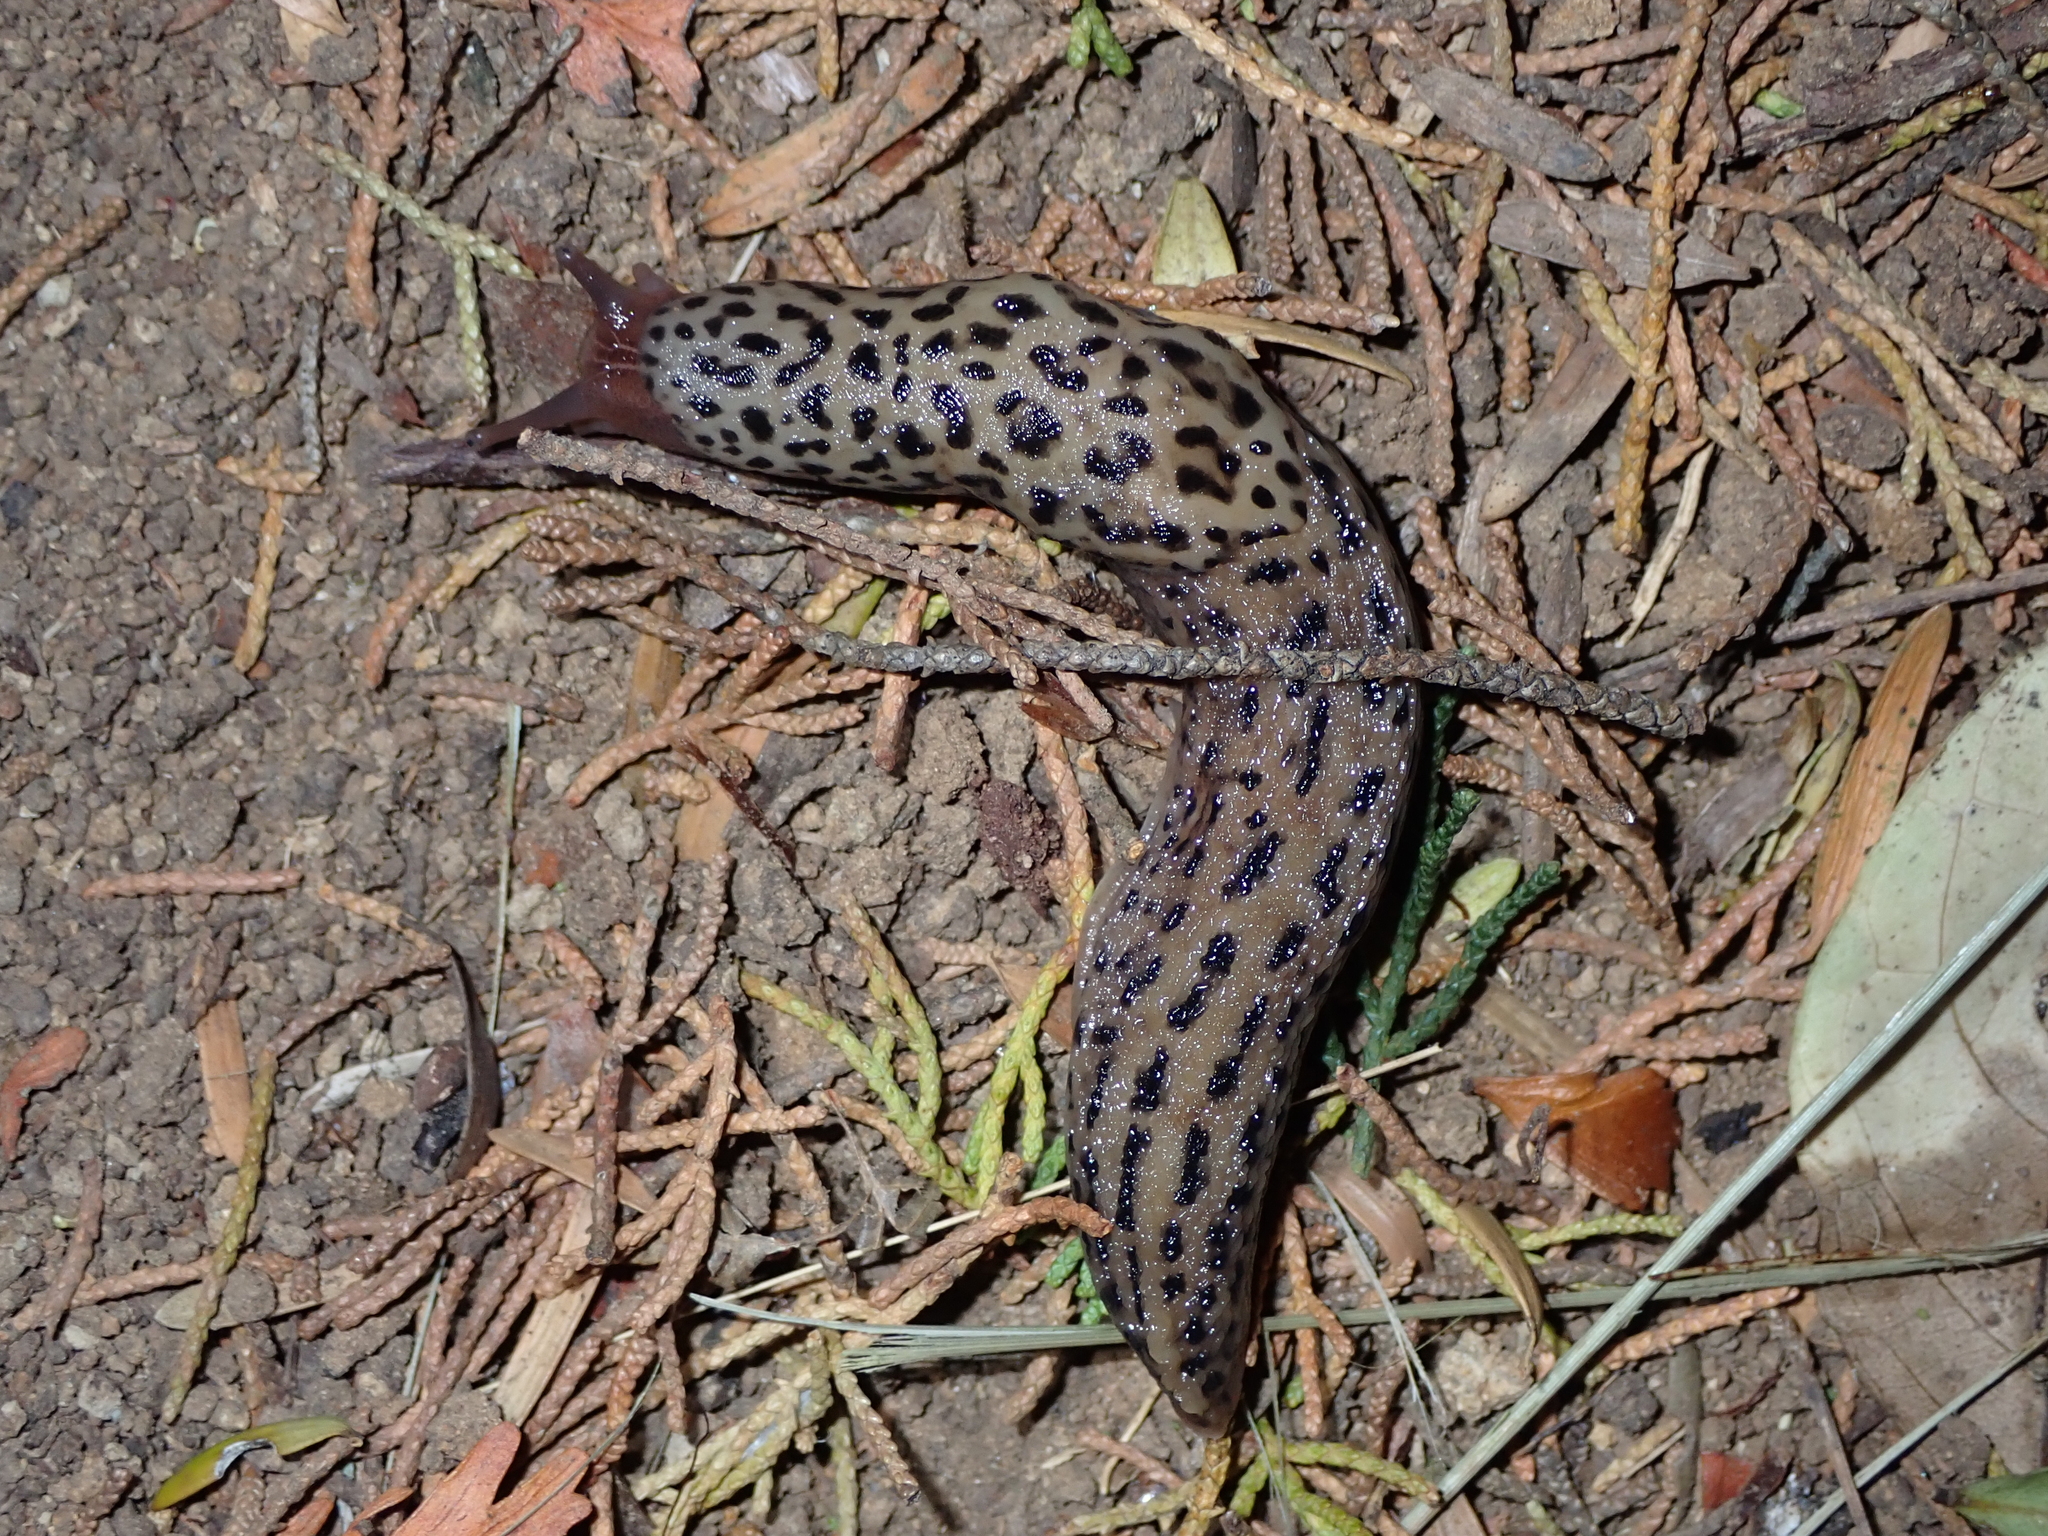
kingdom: Animalia
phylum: Mollusca
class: Gastropoda
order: Stylommatophora
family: Limacidae
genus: Limax
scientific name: Limax maximus
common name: Great grey slug
